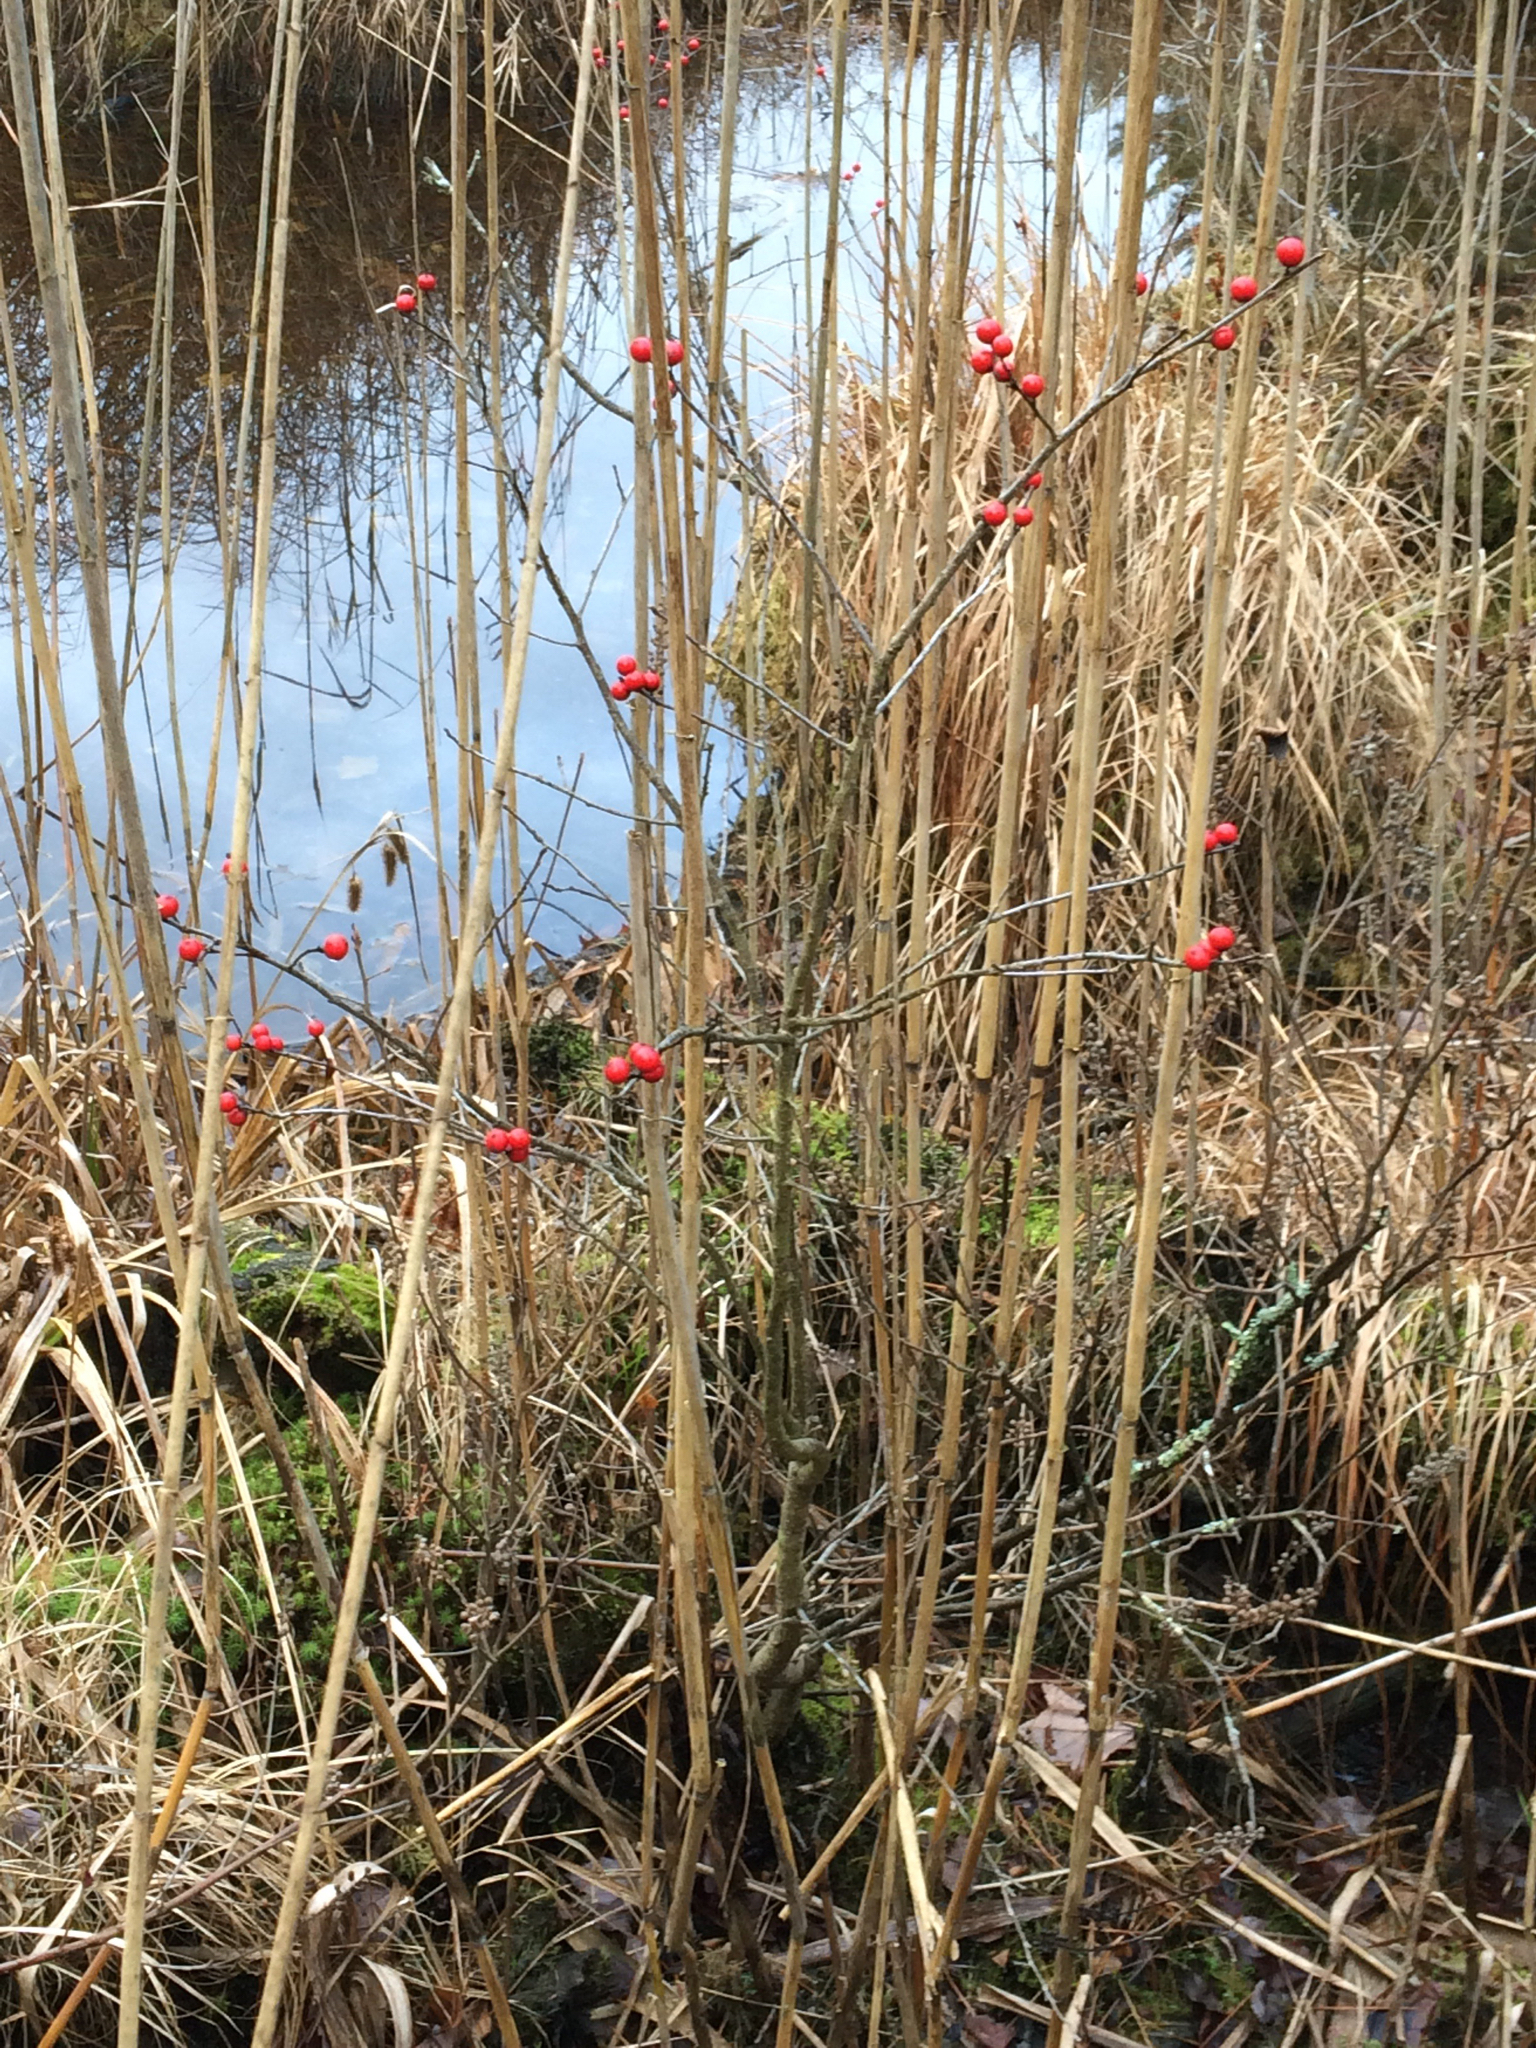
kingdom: Plantae
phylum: Tracheophyta
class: Magnoliopsida
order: Aquifoliales
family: Aquifoliaceae
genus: Ilex
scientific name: Ilex verticillata
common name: Virginia winterberry
